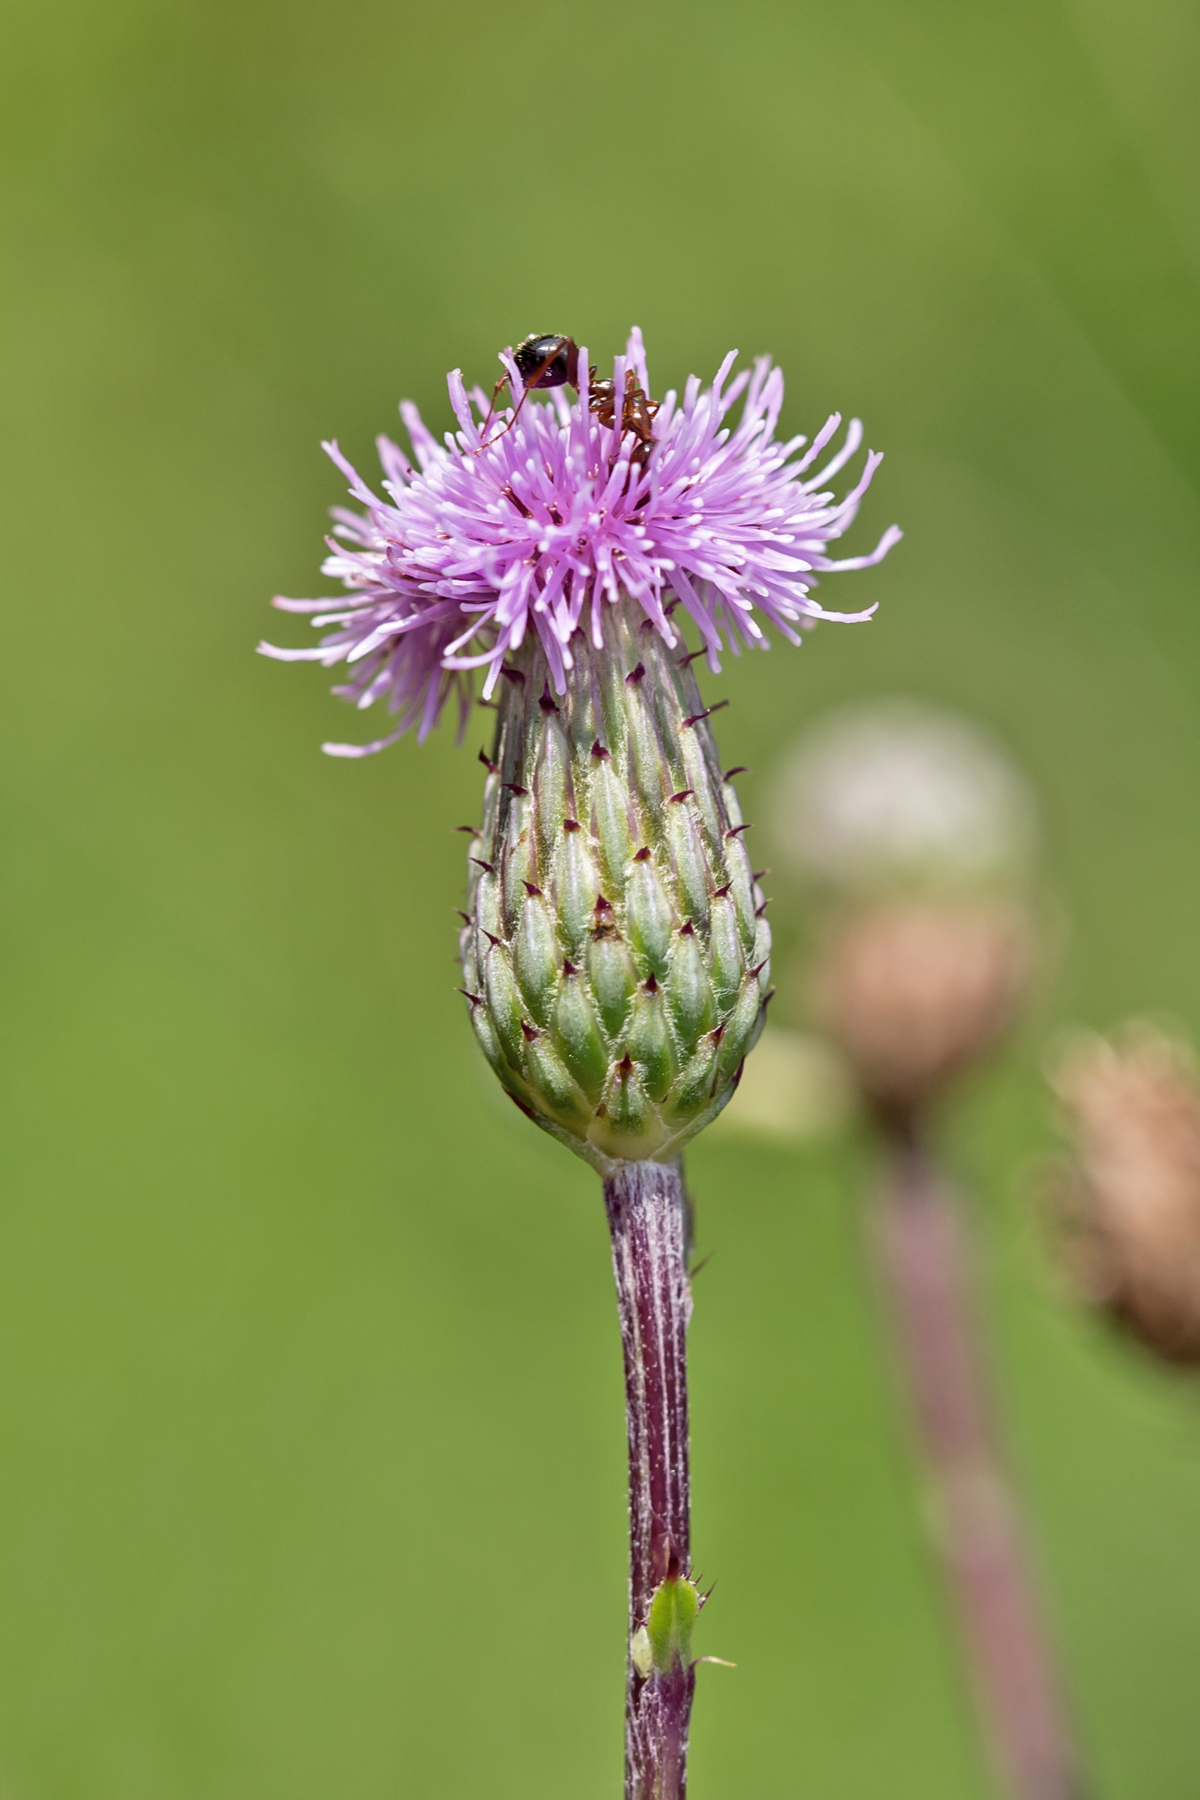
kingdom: Plantae
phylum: Tracheophyta
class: Magnoliopsida
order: Asterales
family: Asteraceae
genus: Cirsium
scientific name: Cirsium arvense
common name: Creeping thistle
